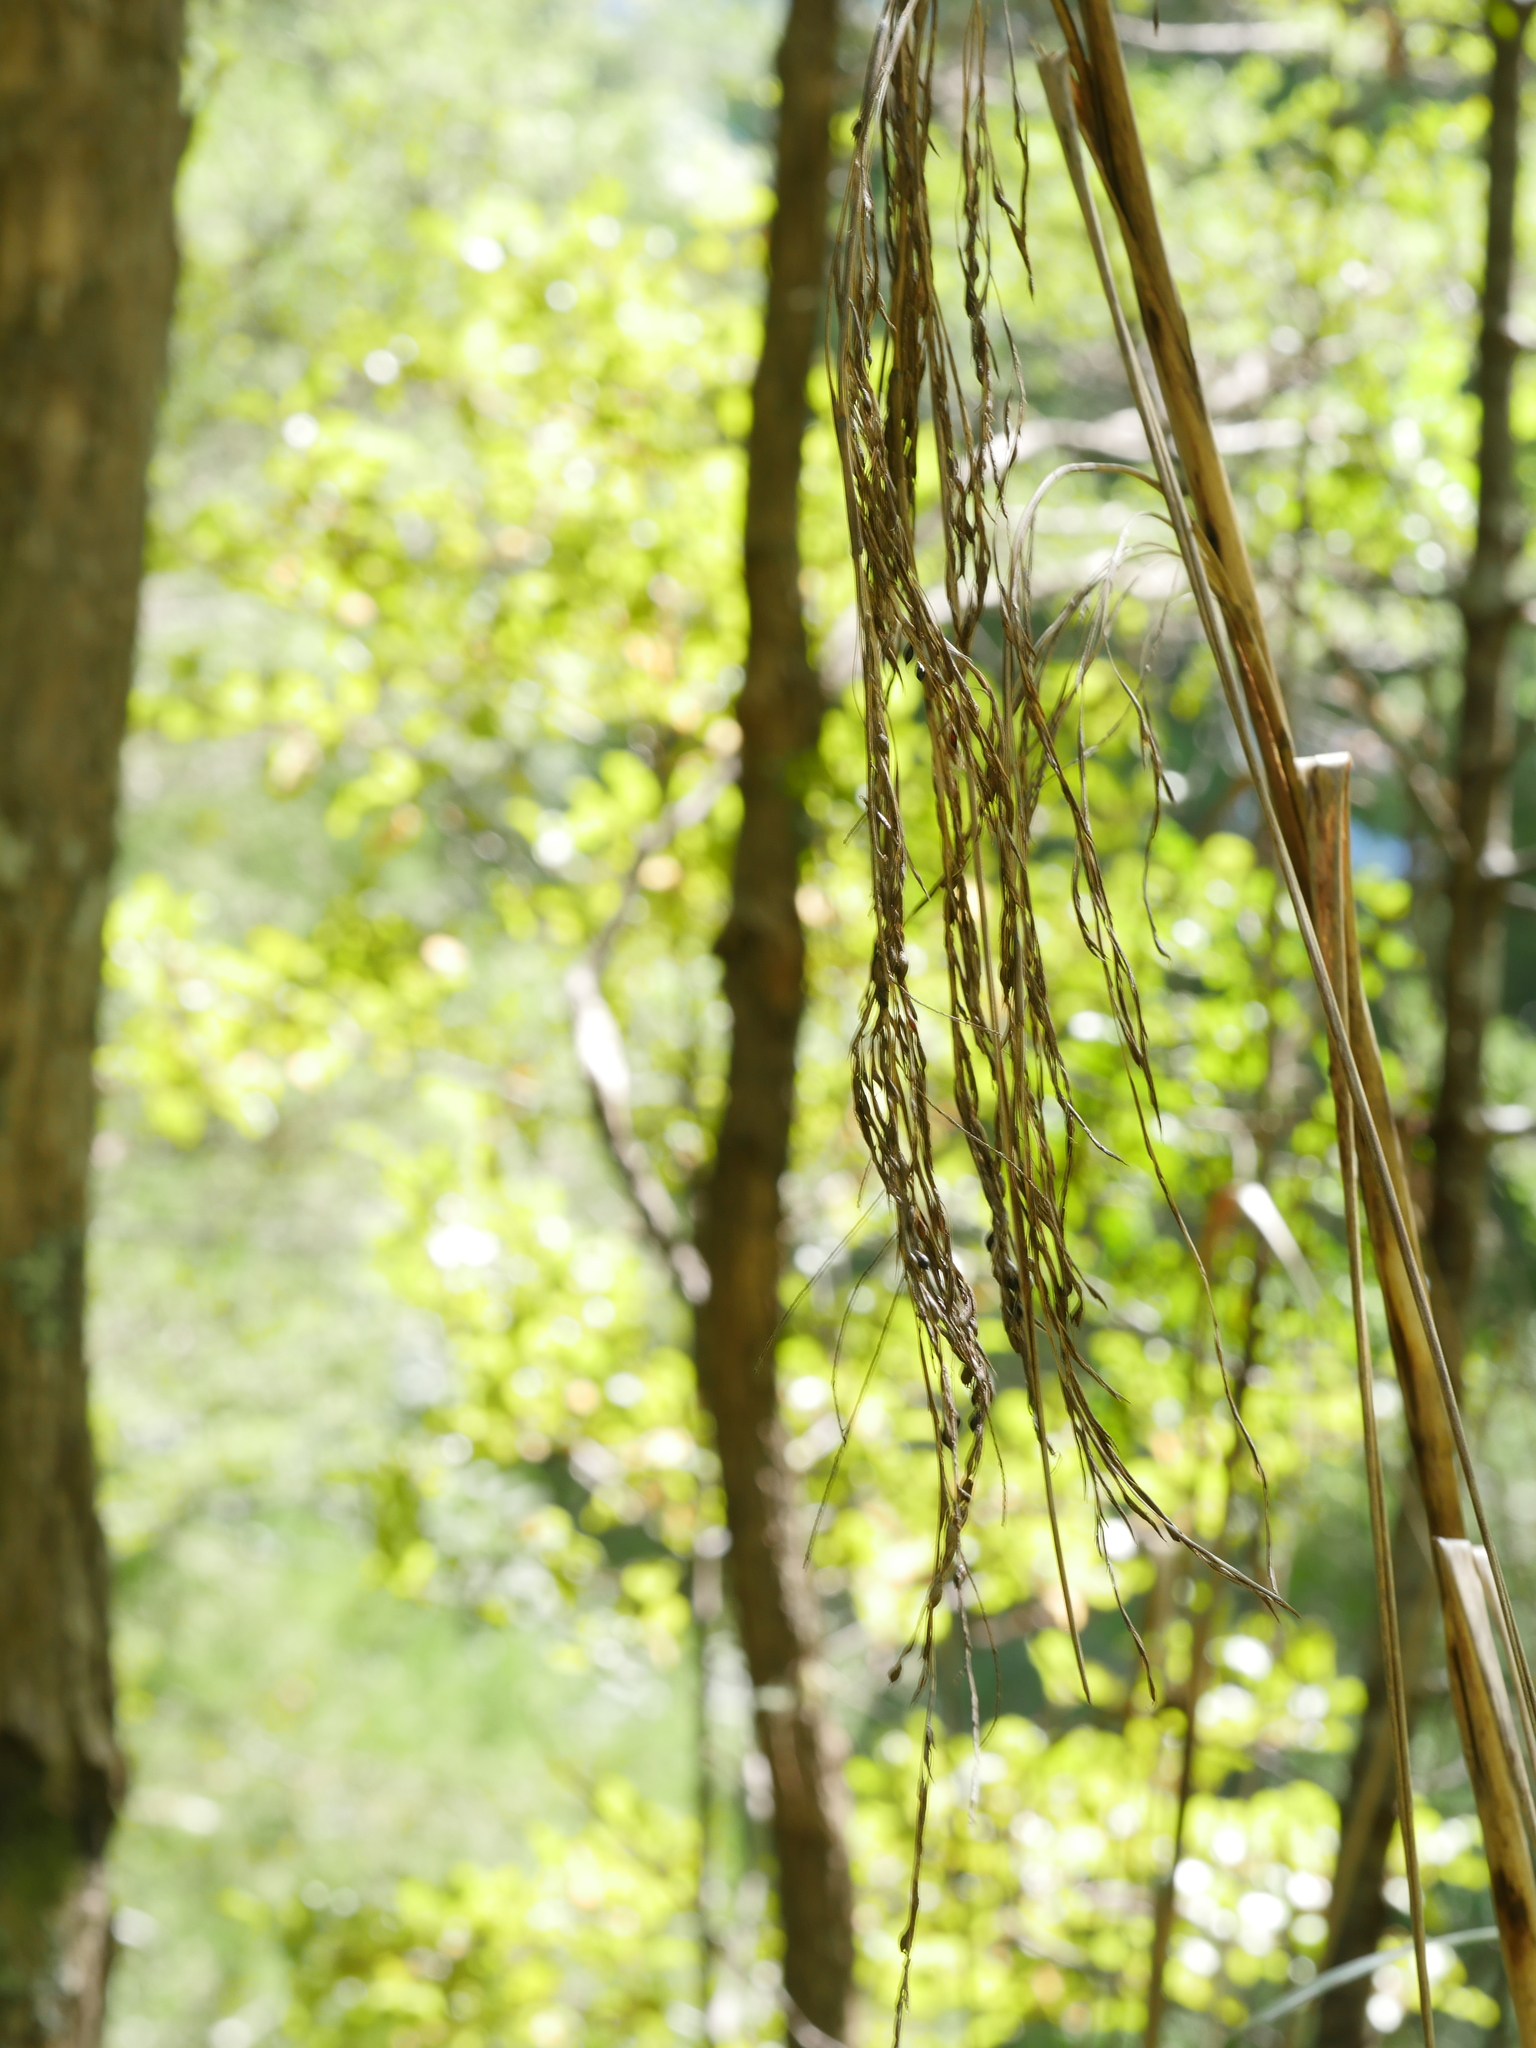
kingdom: Plantae
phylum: Tracheophyta
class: Liliopsida
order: Poales
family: Cyperaceae
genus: Gahnia
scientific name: Gahnia xanthocarpa
